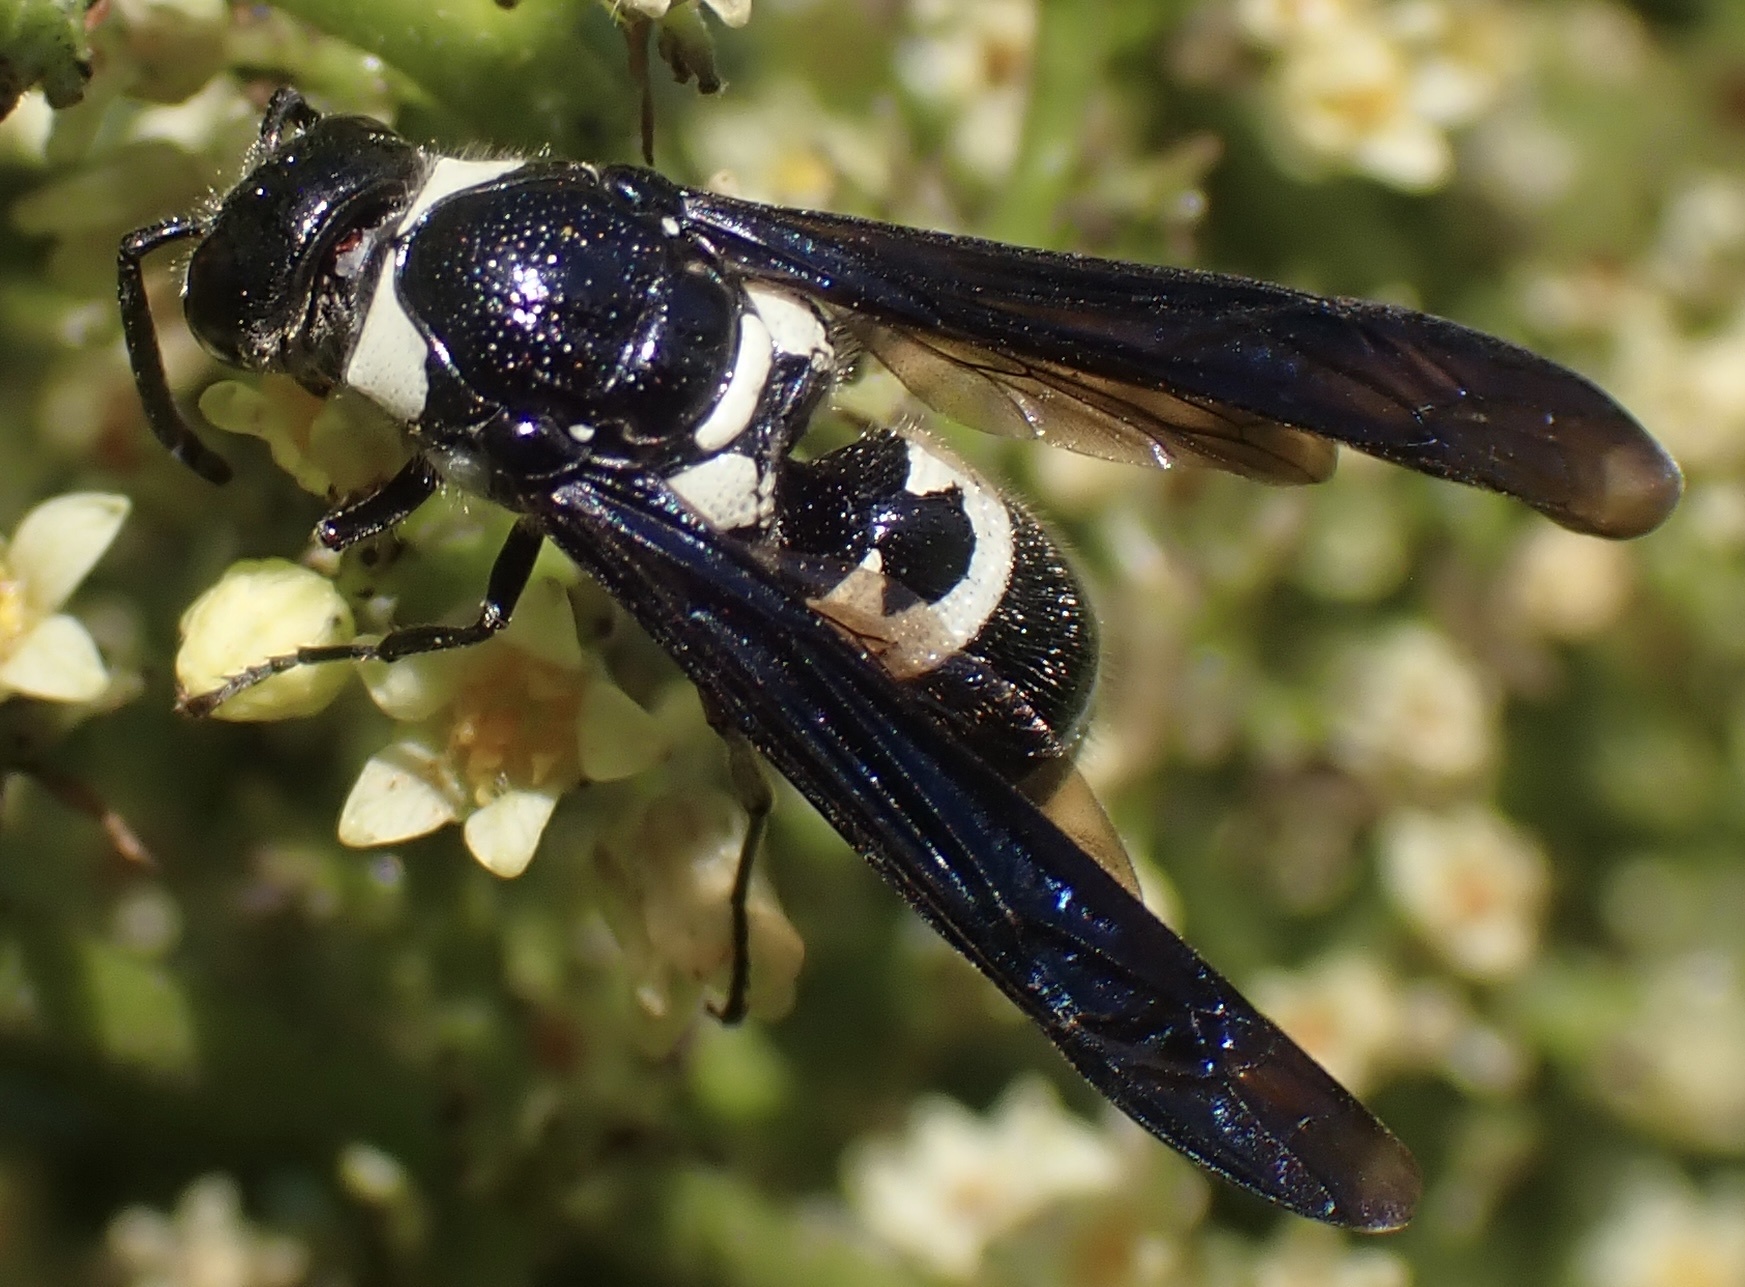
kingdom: Animalia
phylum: Arthropoda
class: Insecta
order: Hymenoptera
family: Eumenidae
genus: Pseudodynerus
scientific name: Pseudodynerus quadrisectus
